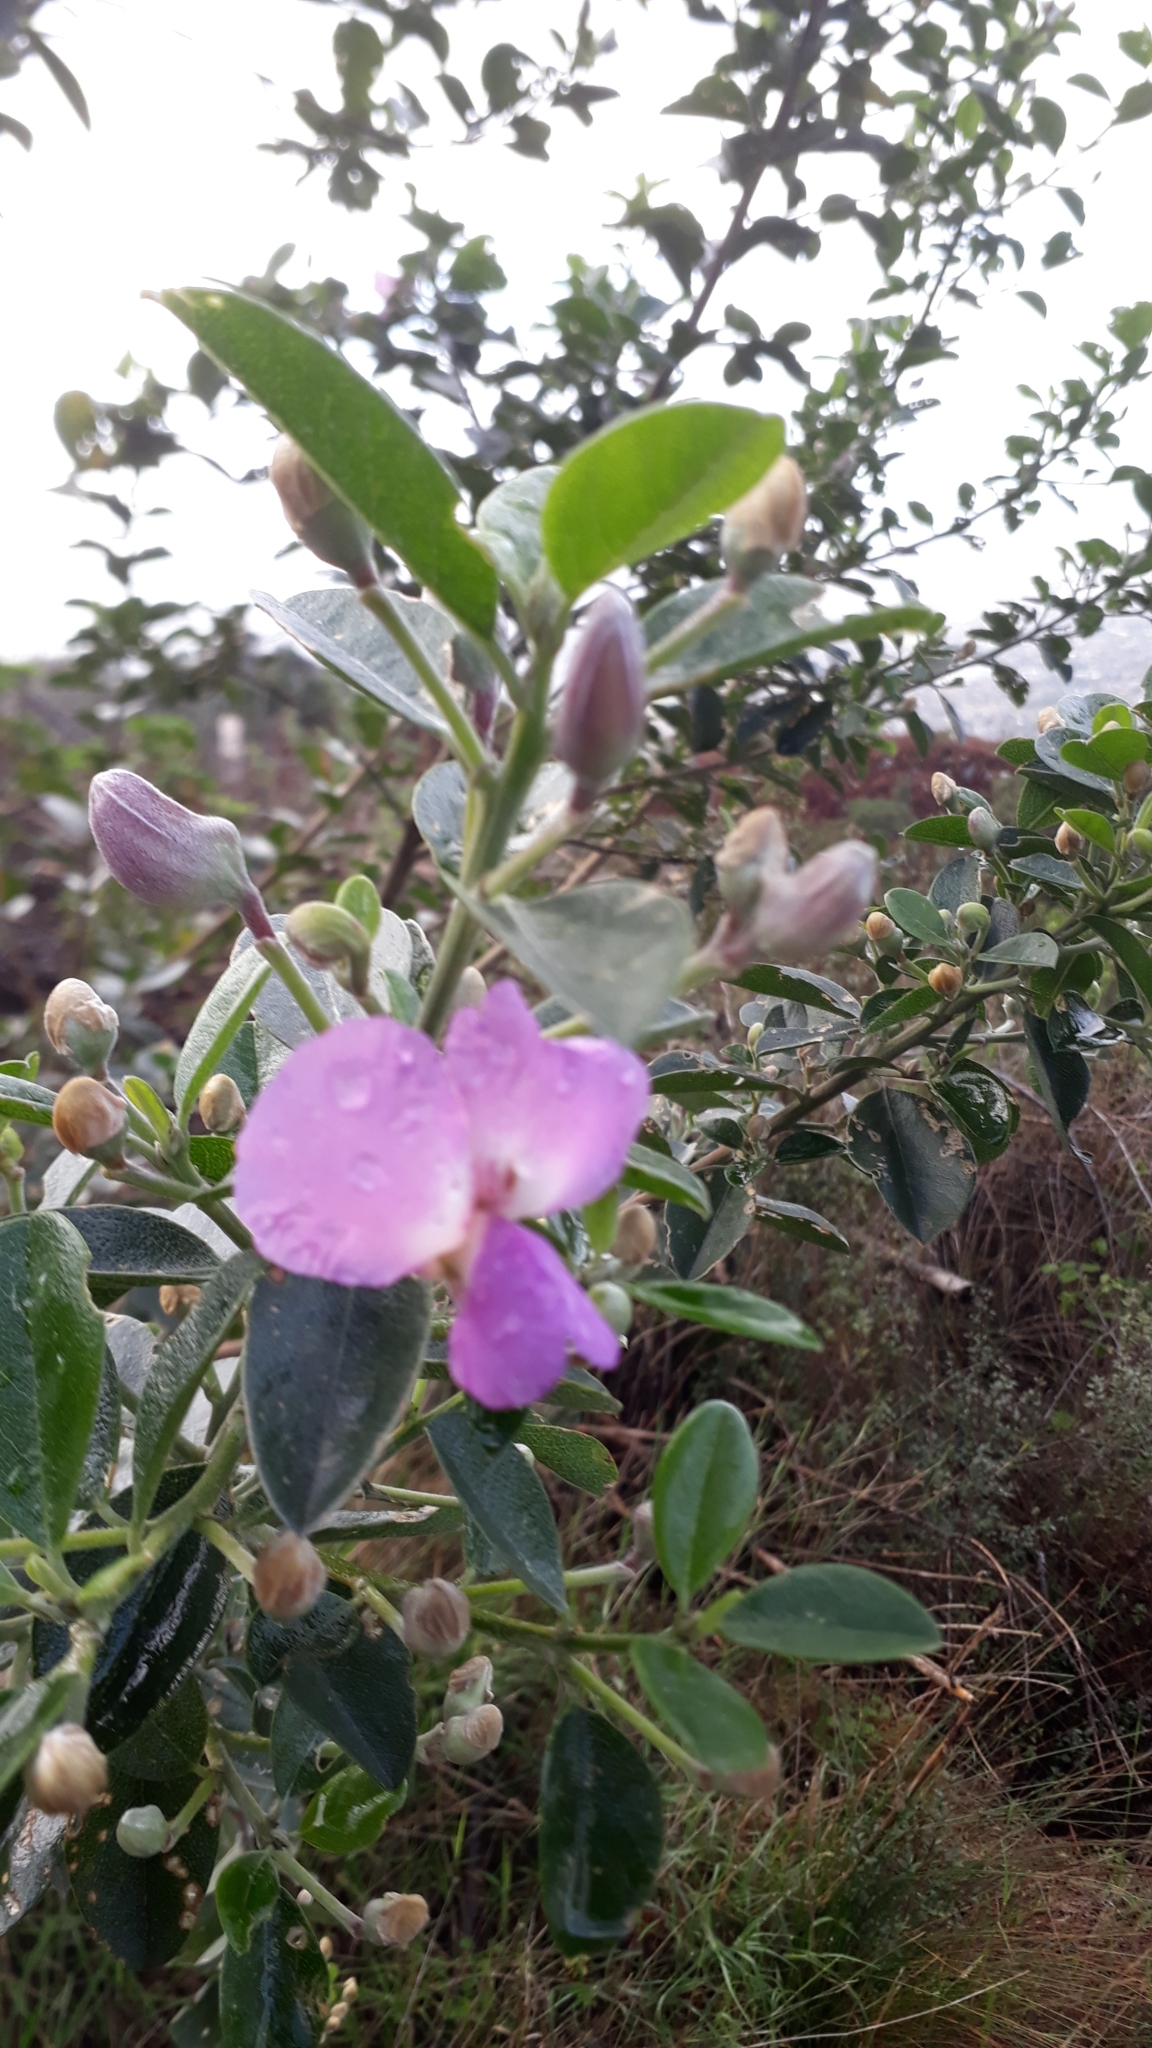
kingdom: Plantae
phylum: Tracheophyta
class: Magnoliopsida
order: Fabales
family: Fabaceae
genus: Podalyria
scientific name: Podalyria calyptrata
